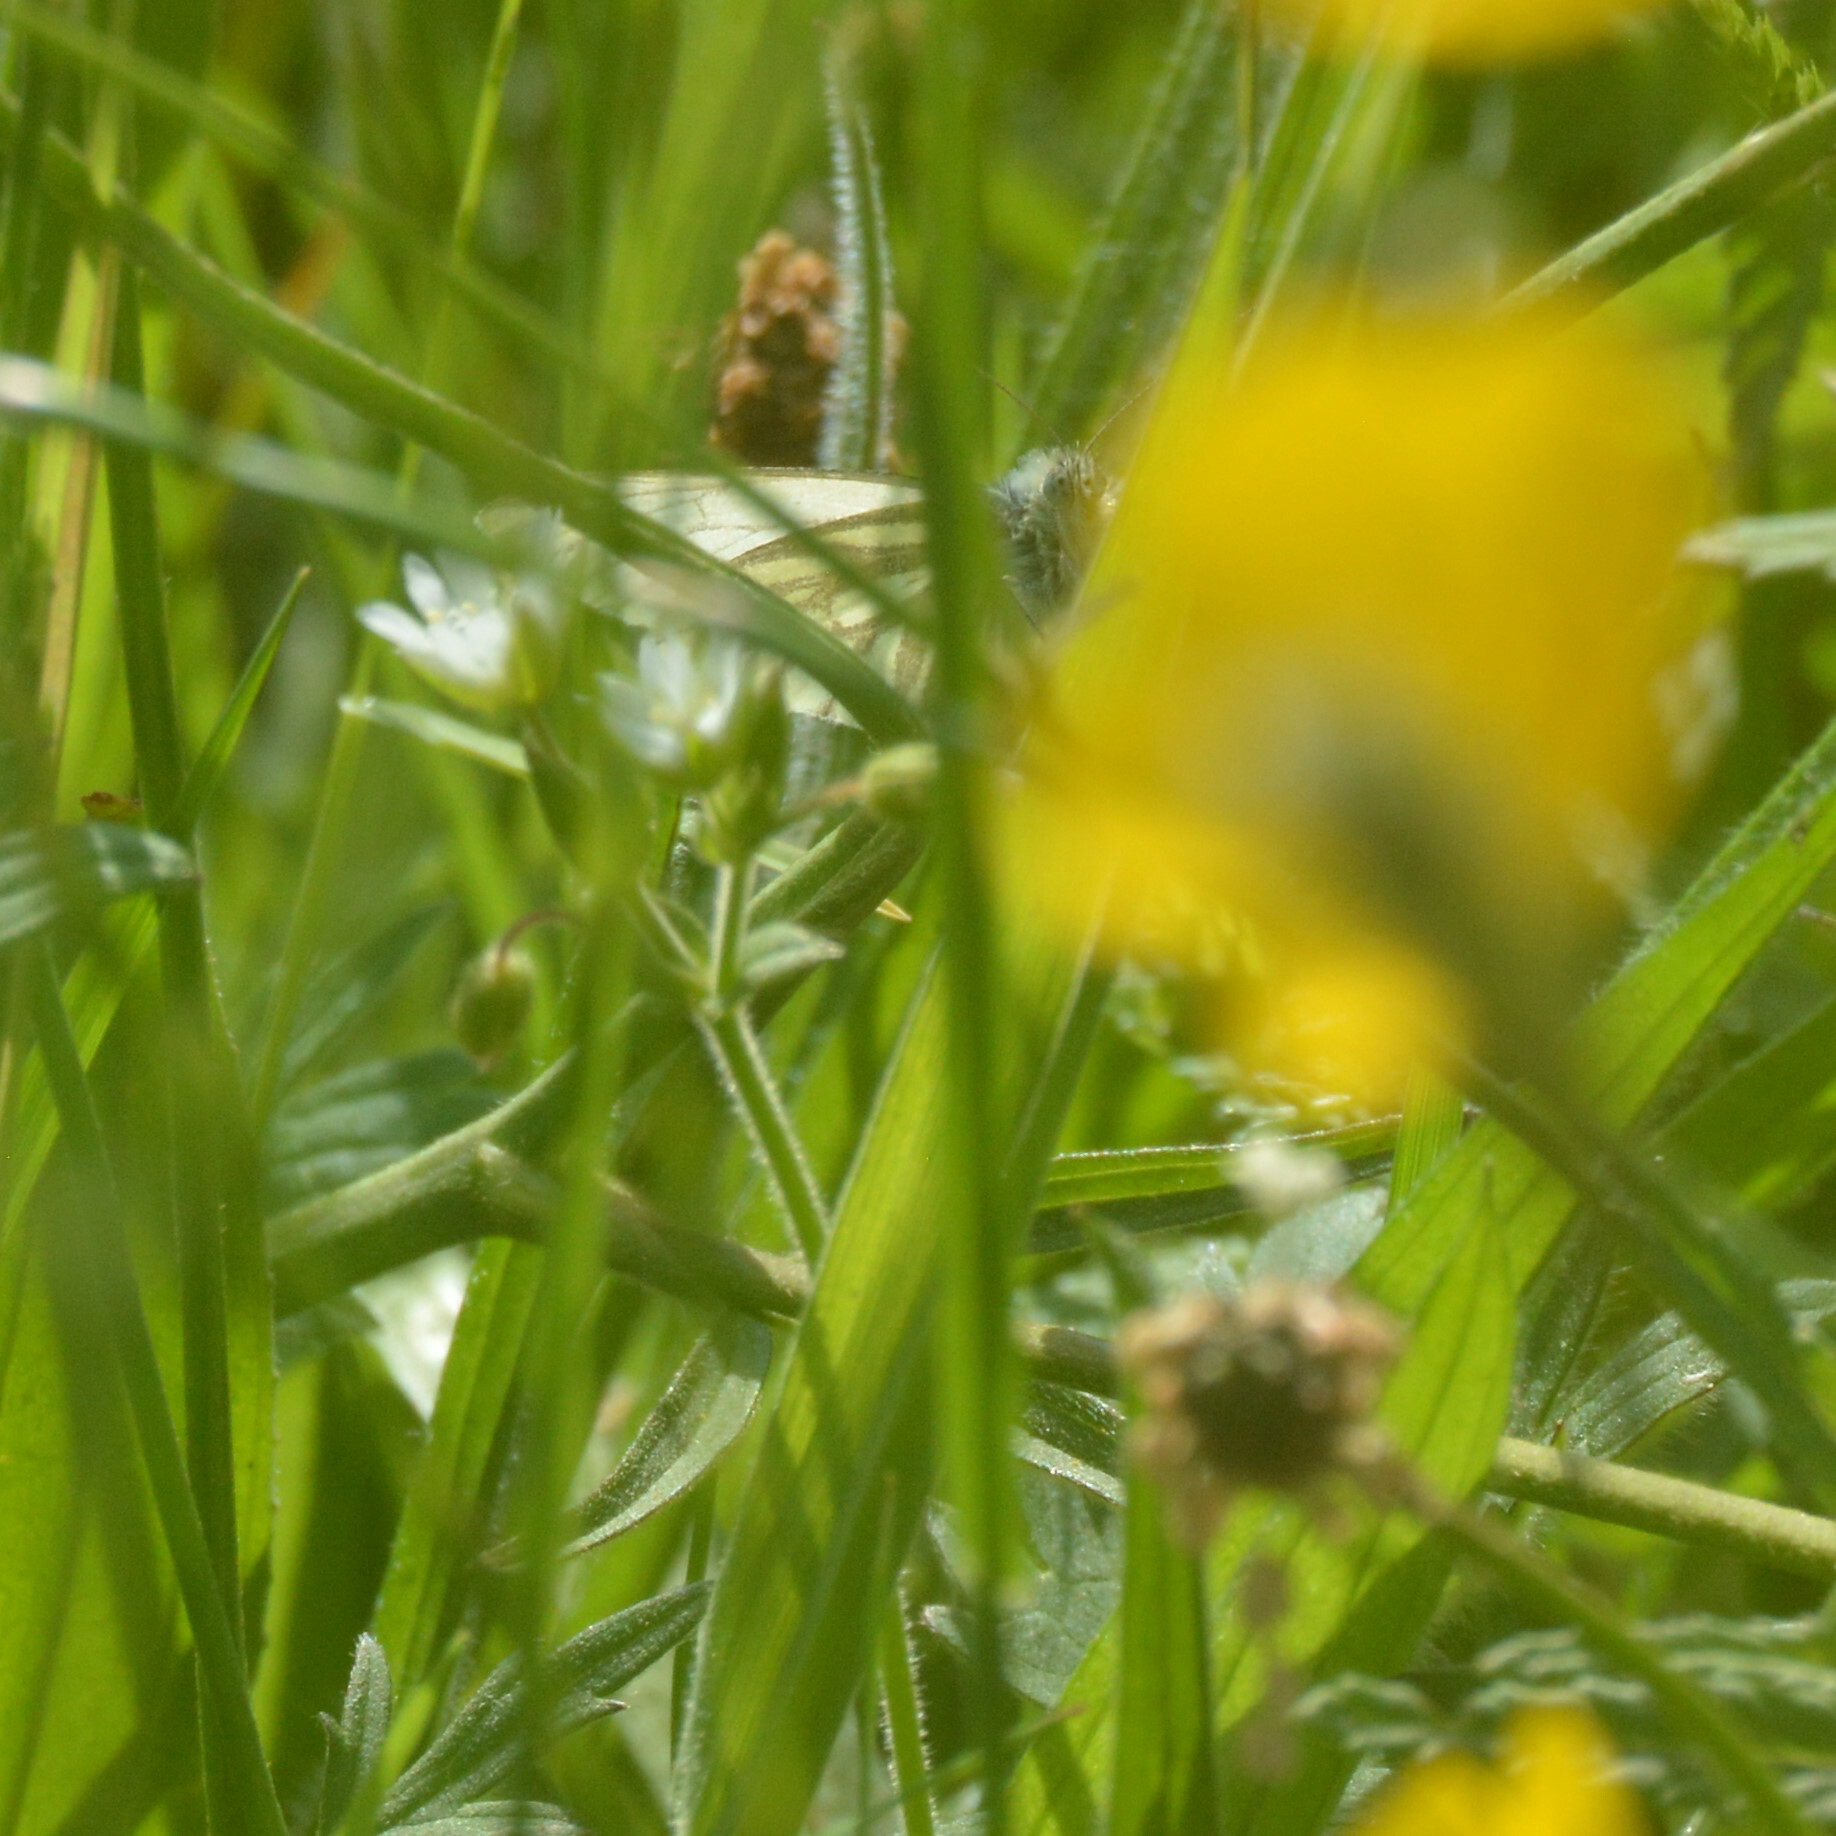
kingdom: Animalia
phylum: Arthropoda
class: Insecta
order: Lepidoptera
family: Pieridae
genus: Pieris
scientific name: Pieris napi
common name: Green-veined white
